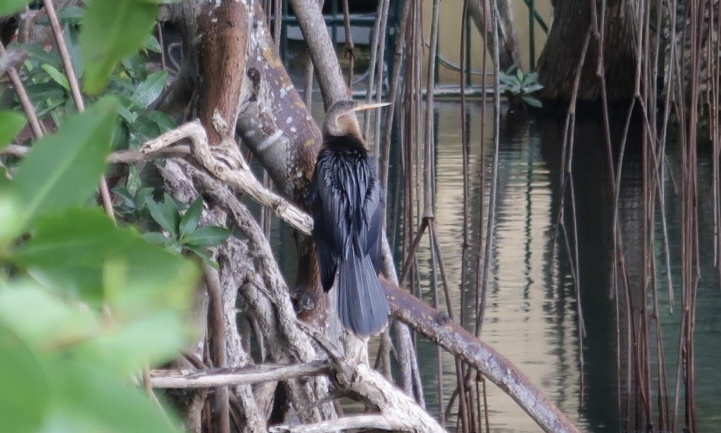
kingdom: Animalia
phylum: Chordata
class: Aves
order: Suliformes
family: Anhingidae
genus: Anhinga
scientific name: Anhinga anhinga
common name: Anhinga
